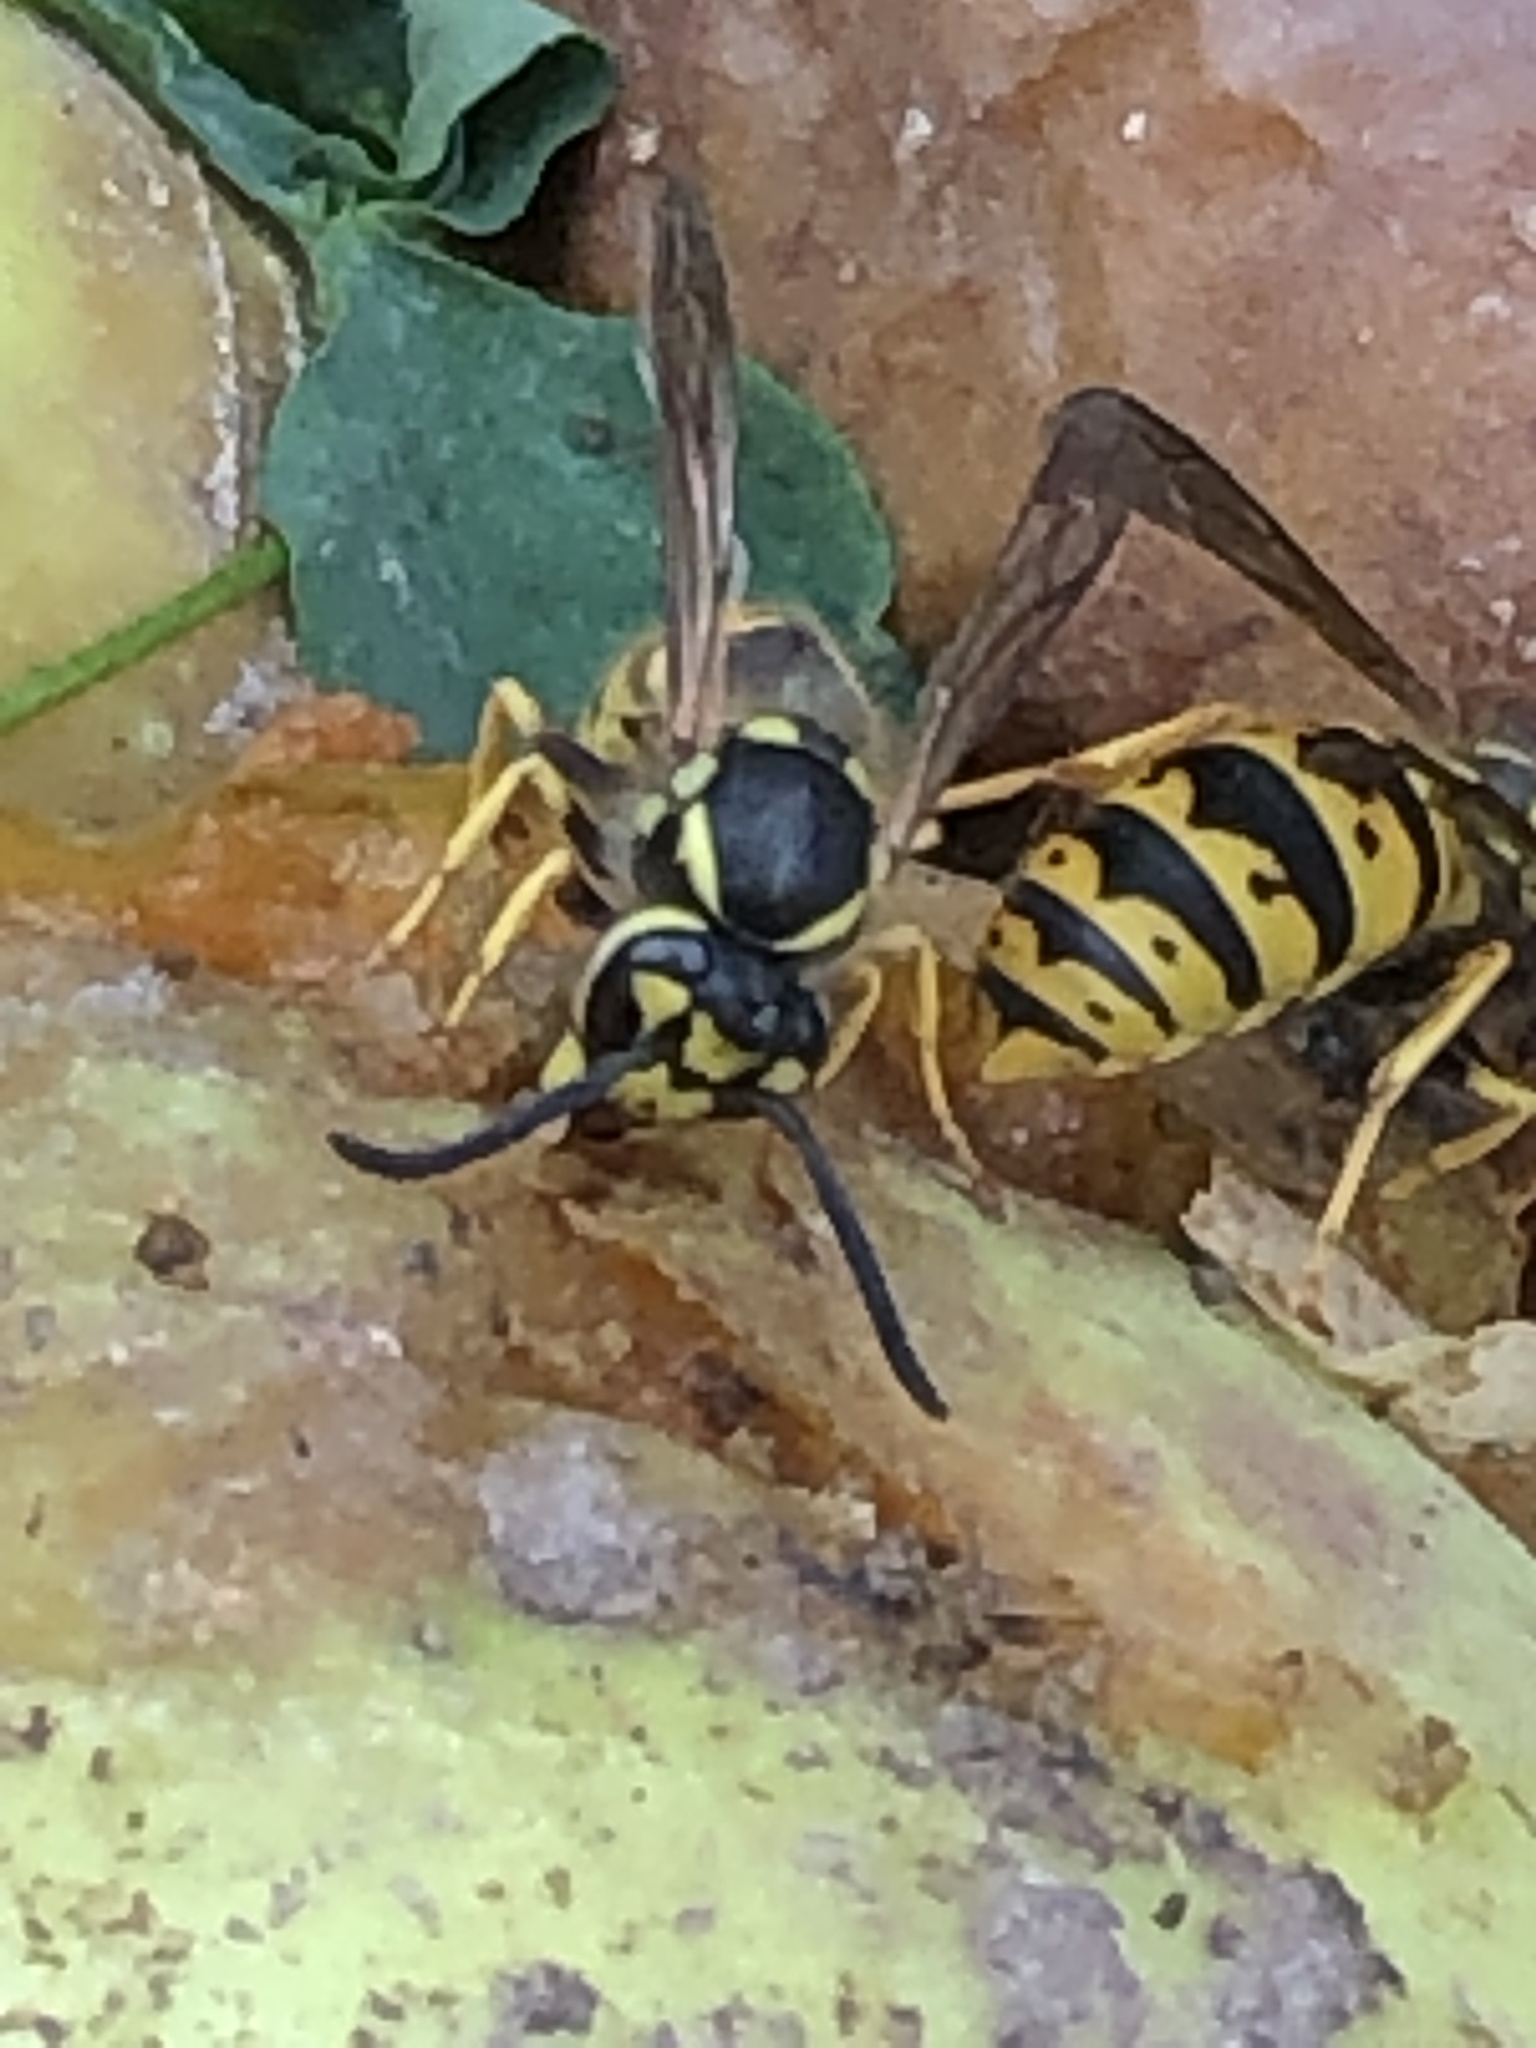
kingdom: Animalia
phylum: Arthropoda
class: Insecta
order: Hymenoptera
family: Vespidae
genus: Vespula
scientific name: Vespula germanica
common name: German wasp
